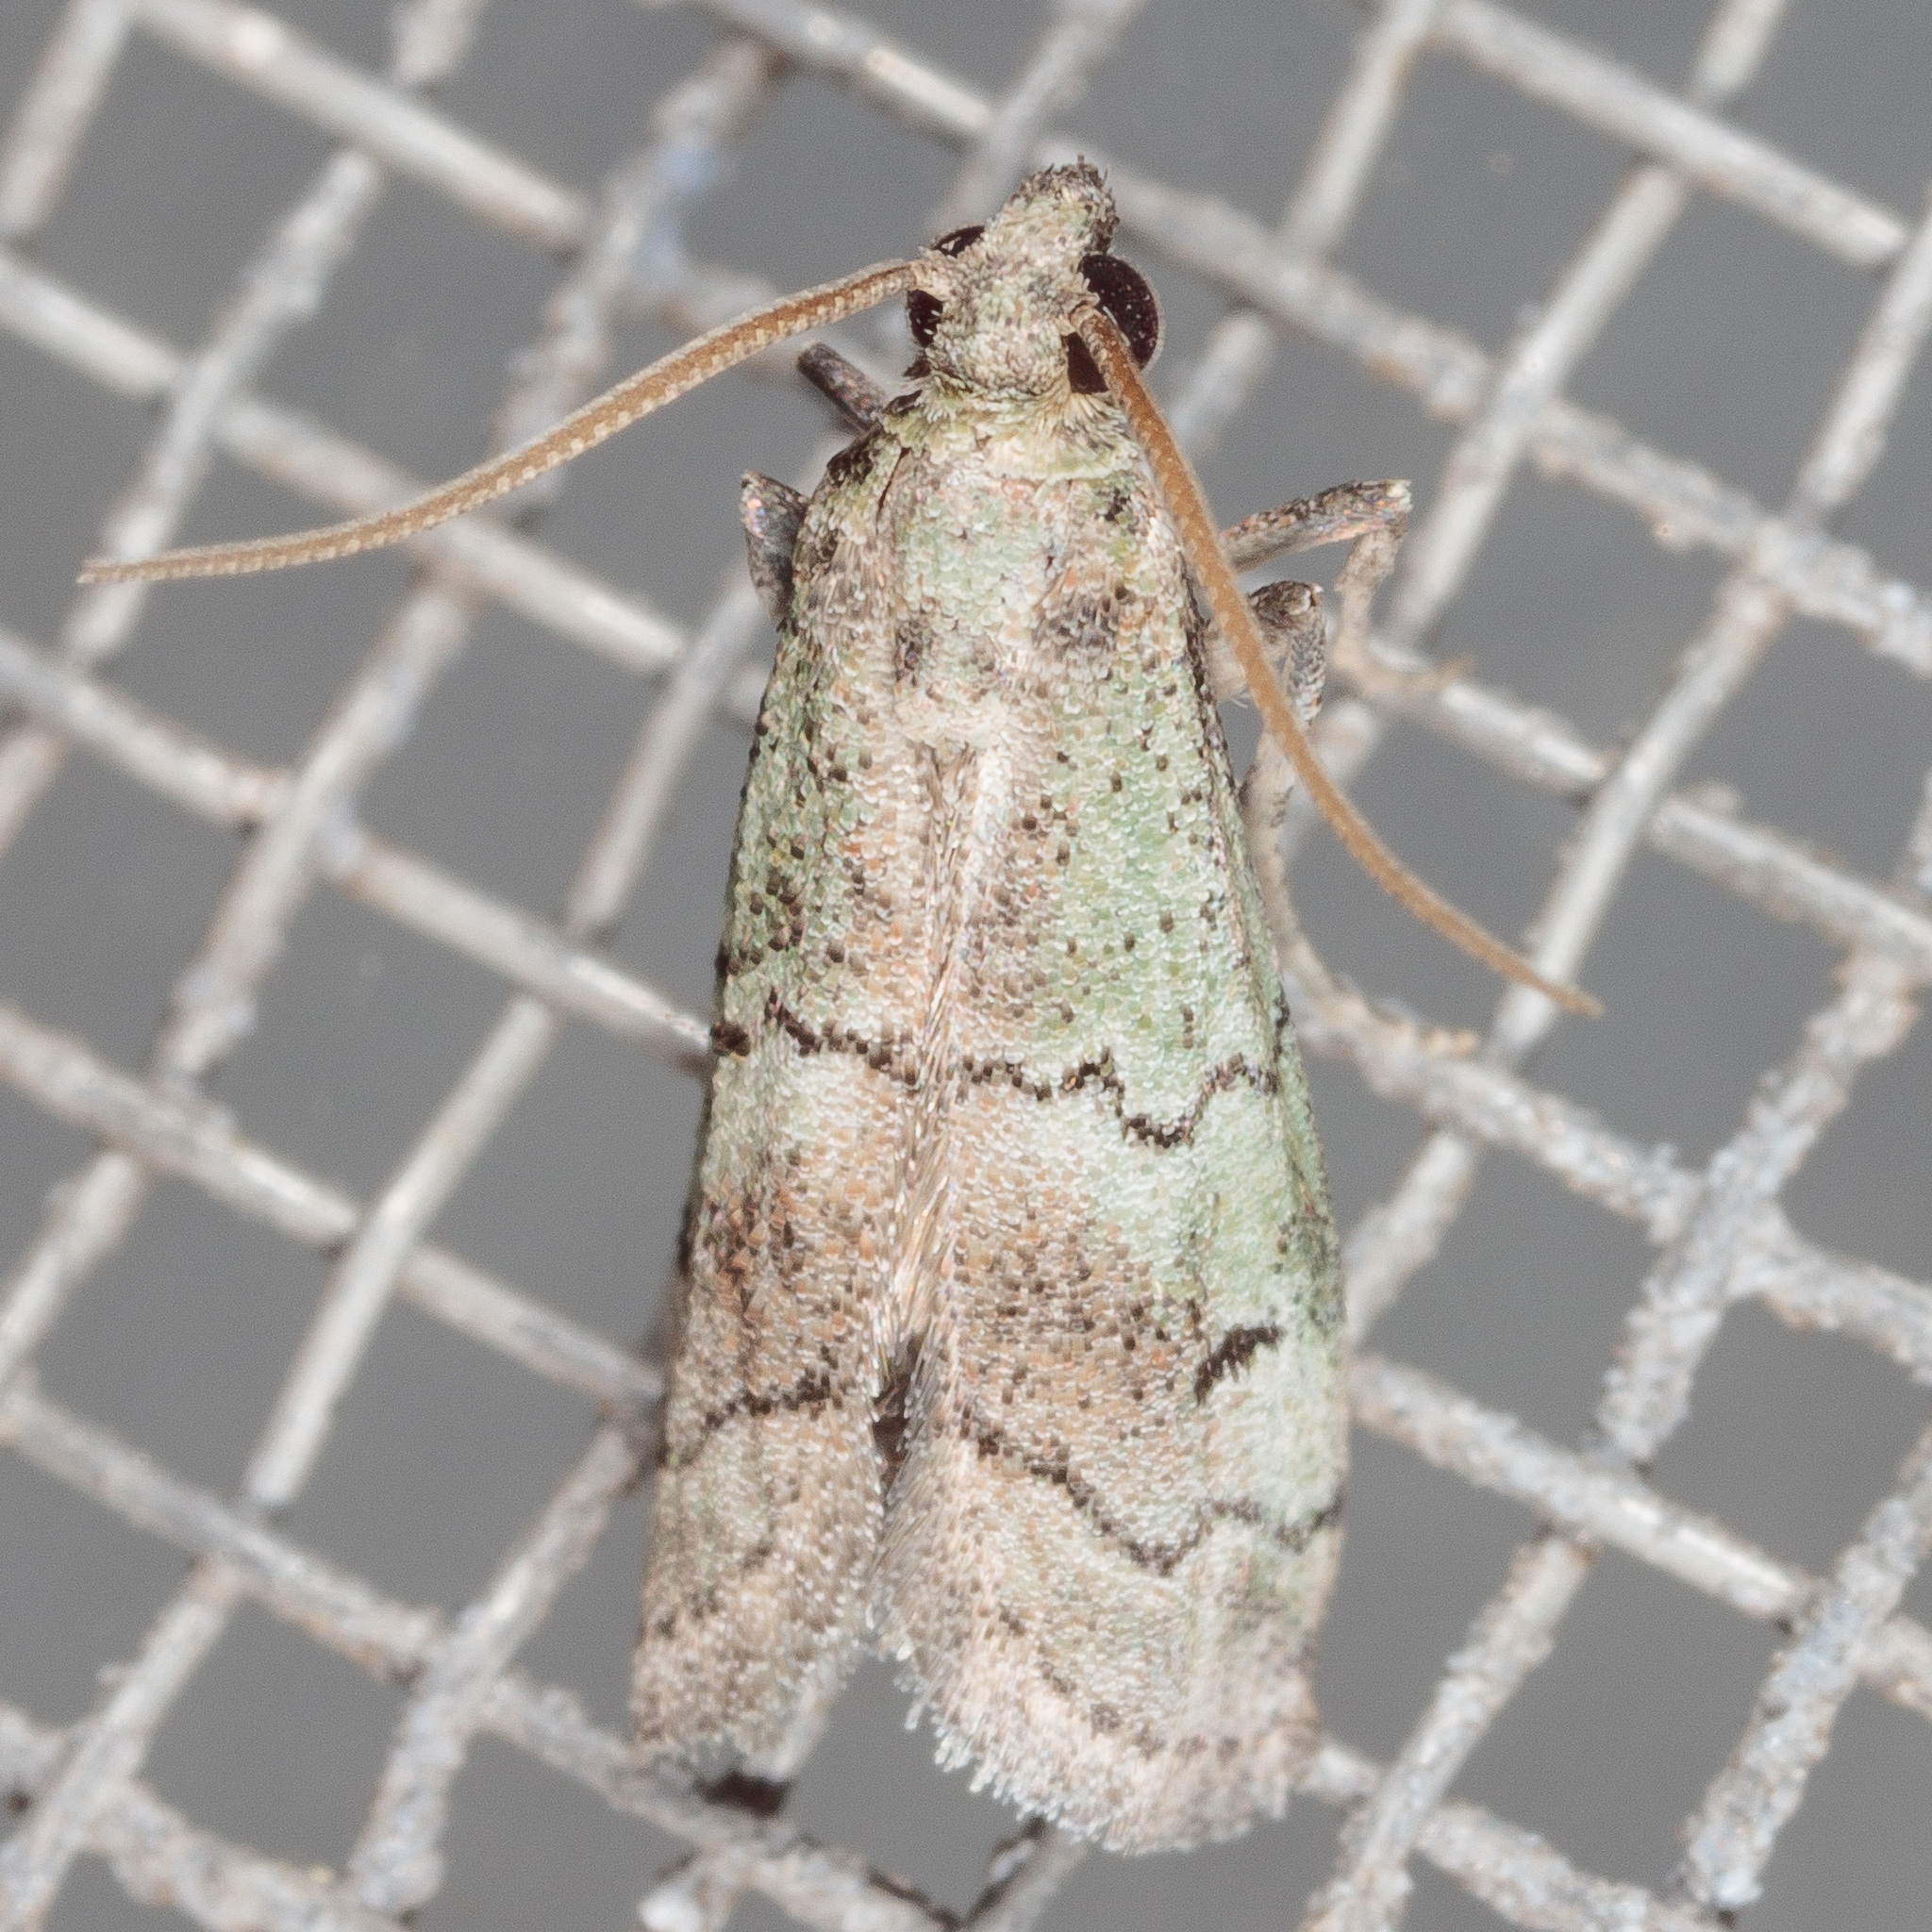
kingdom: Animalia
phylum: Arthropoda
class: Insecta
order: Lepidoptera
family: Pyralidae
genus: Cacotherapia
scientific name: Cacotherapia flexilinealis
